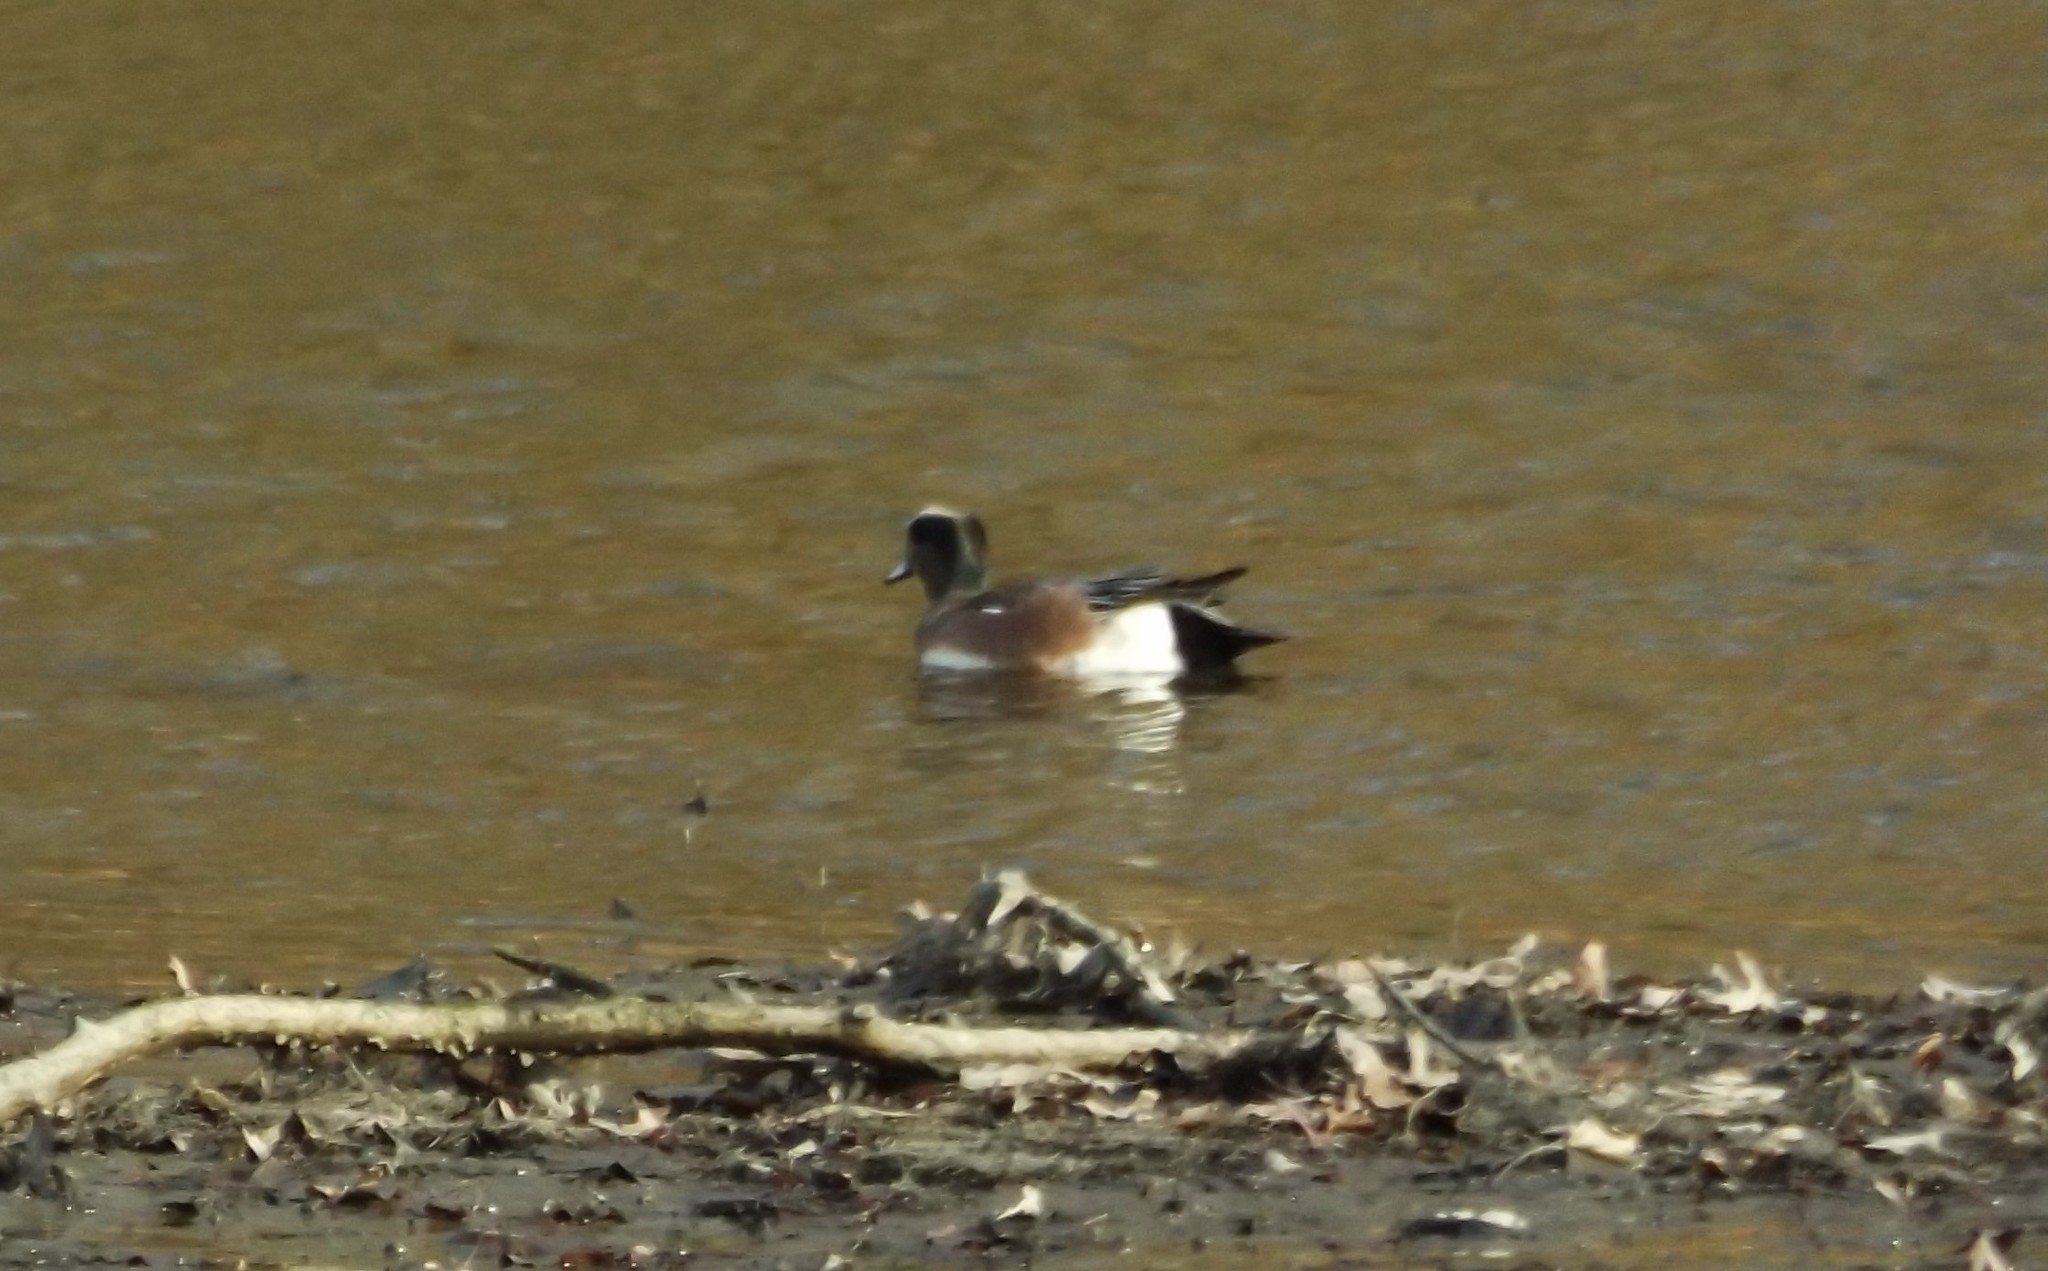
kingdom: Animalia
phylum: Chordata
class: Aves
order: Anseriformes
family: Anatidae
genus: Mareca
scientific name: Mareca americana
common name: American wigeon
